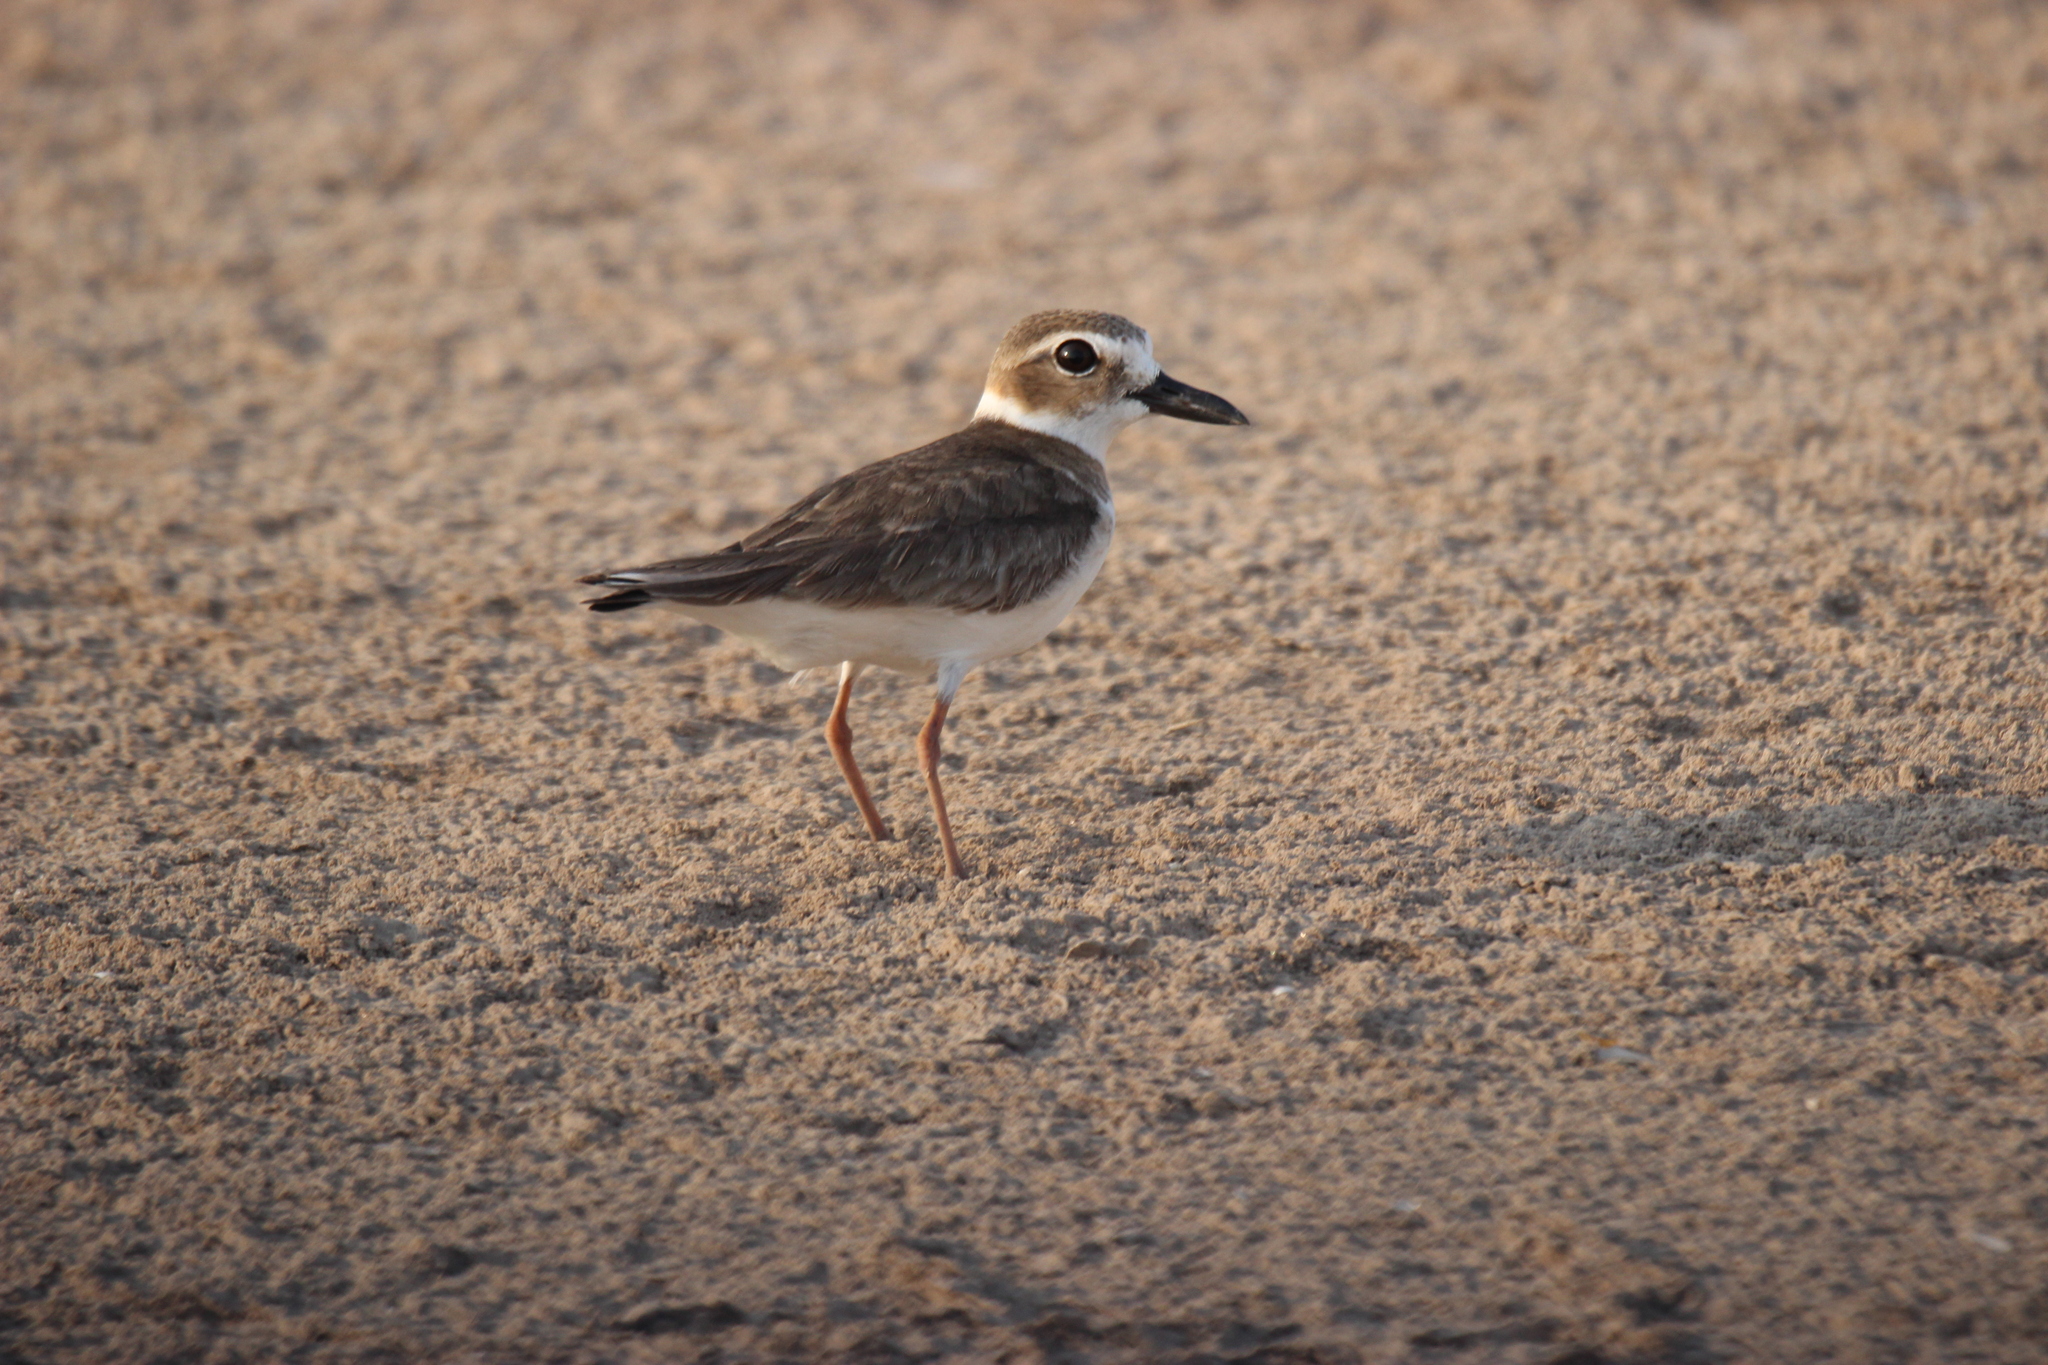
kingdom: Animalia
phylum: Chordata
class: Aves
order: Charadriiformes
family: Charadriidae
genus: Anarhynchus
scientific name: Anarhynchus
